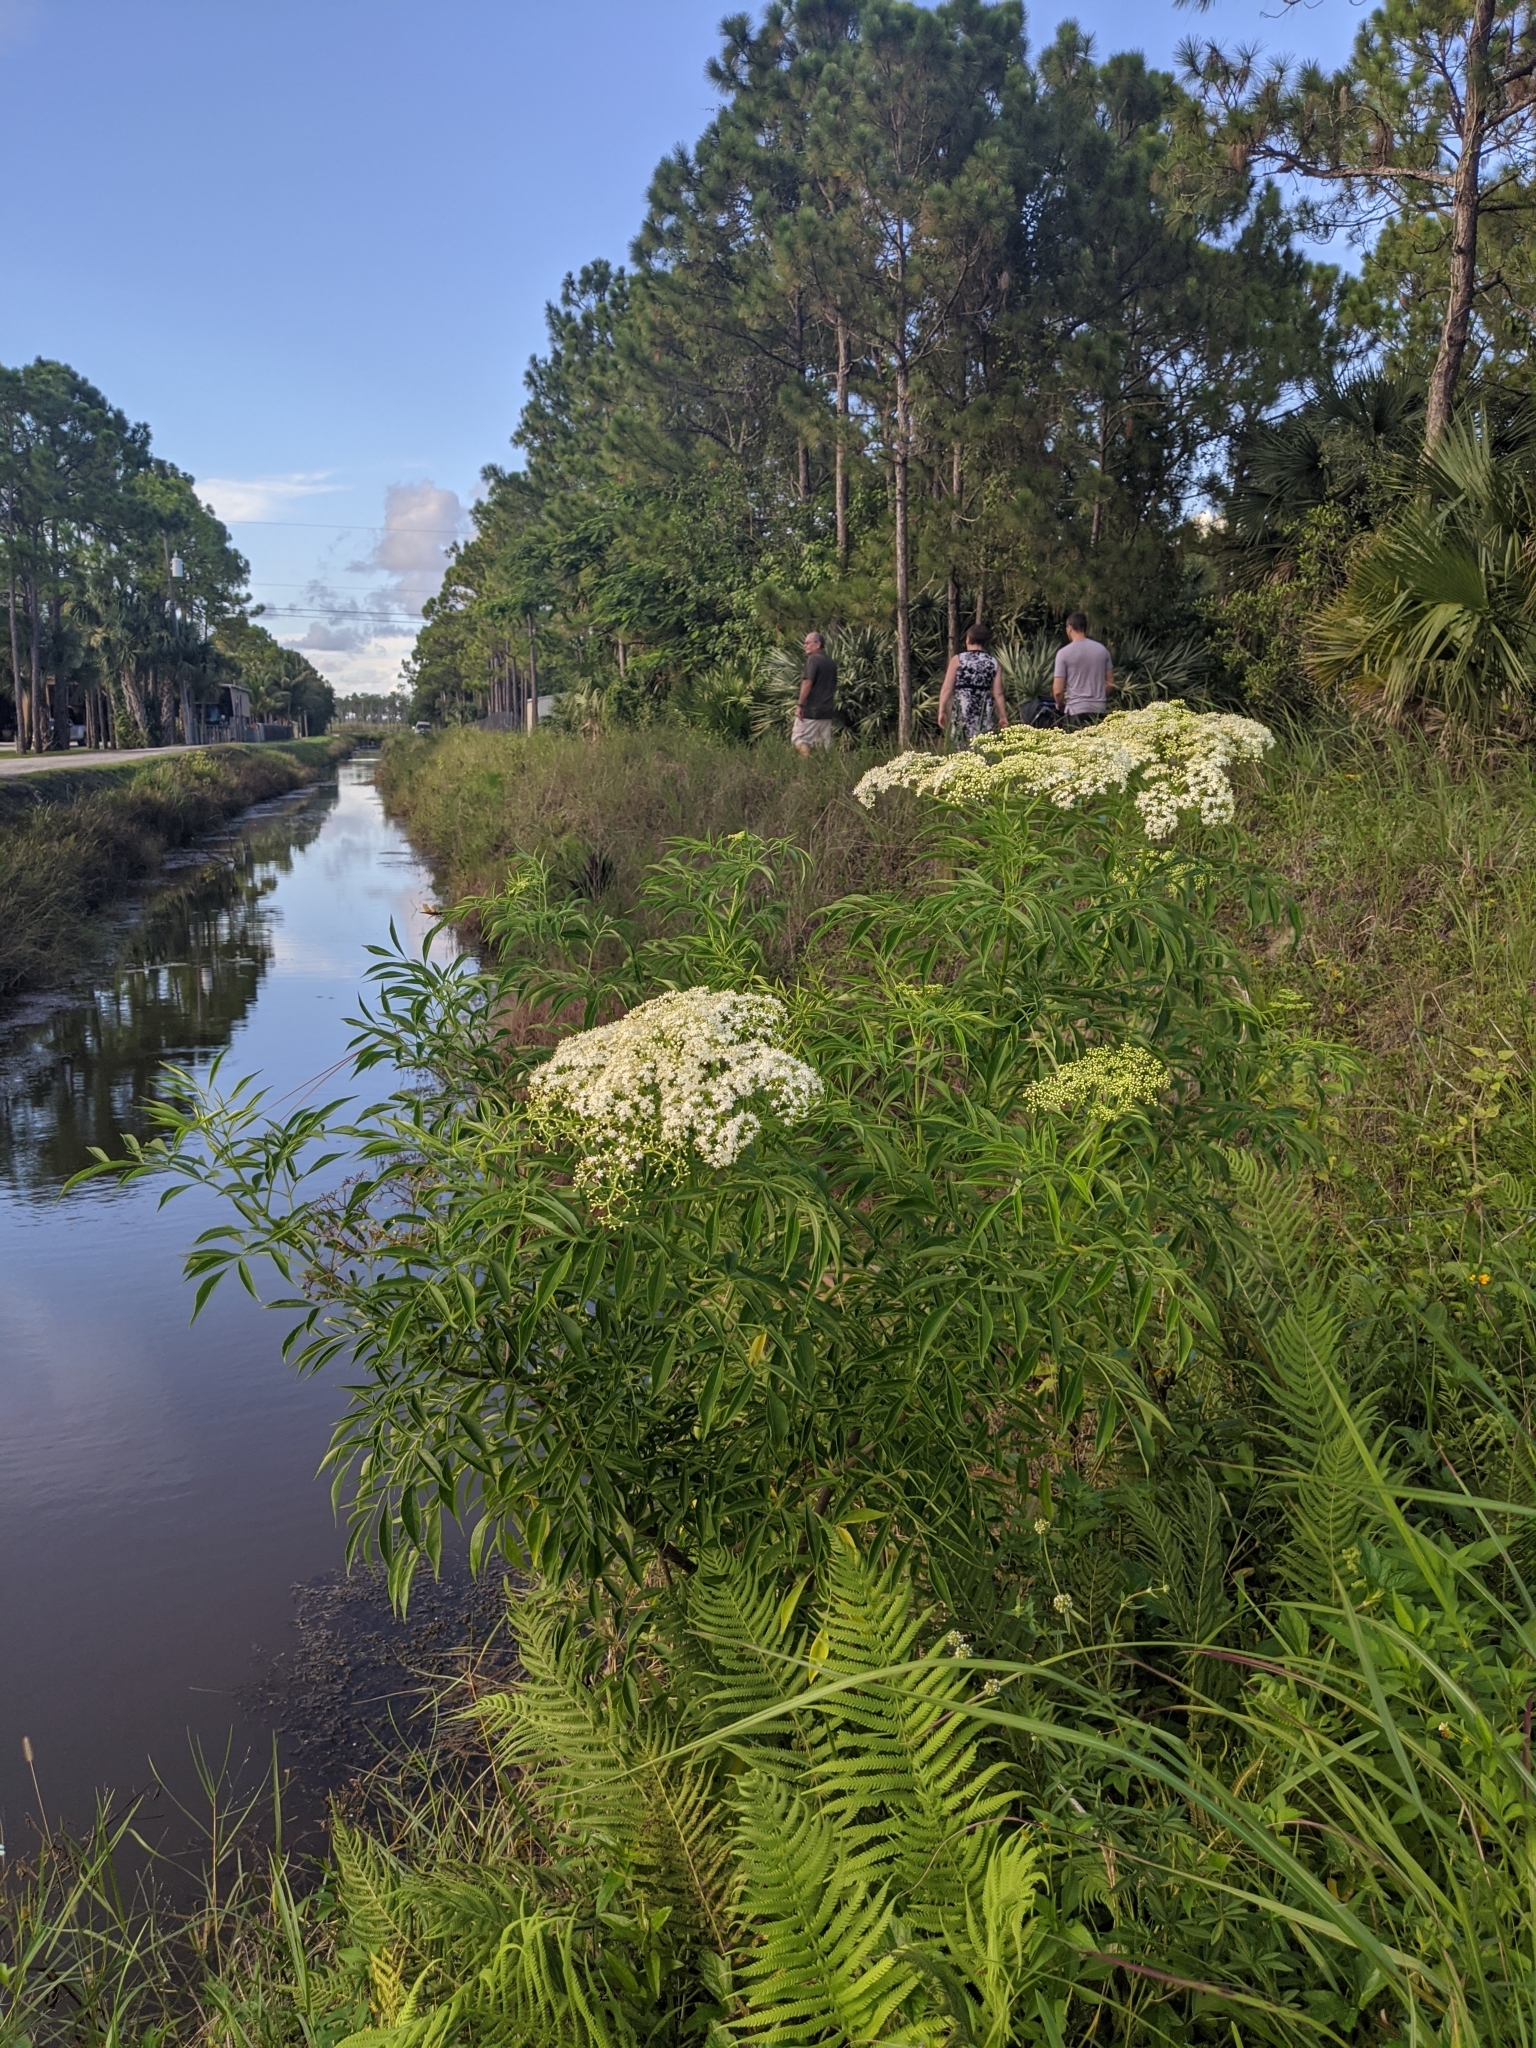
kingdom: Plantae
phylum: Tracheophyta
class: Magnoliopsida
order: Dipsacales
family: Viburnaceae
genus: Sambucus
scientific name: Sambucus canadensis
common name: American elder
